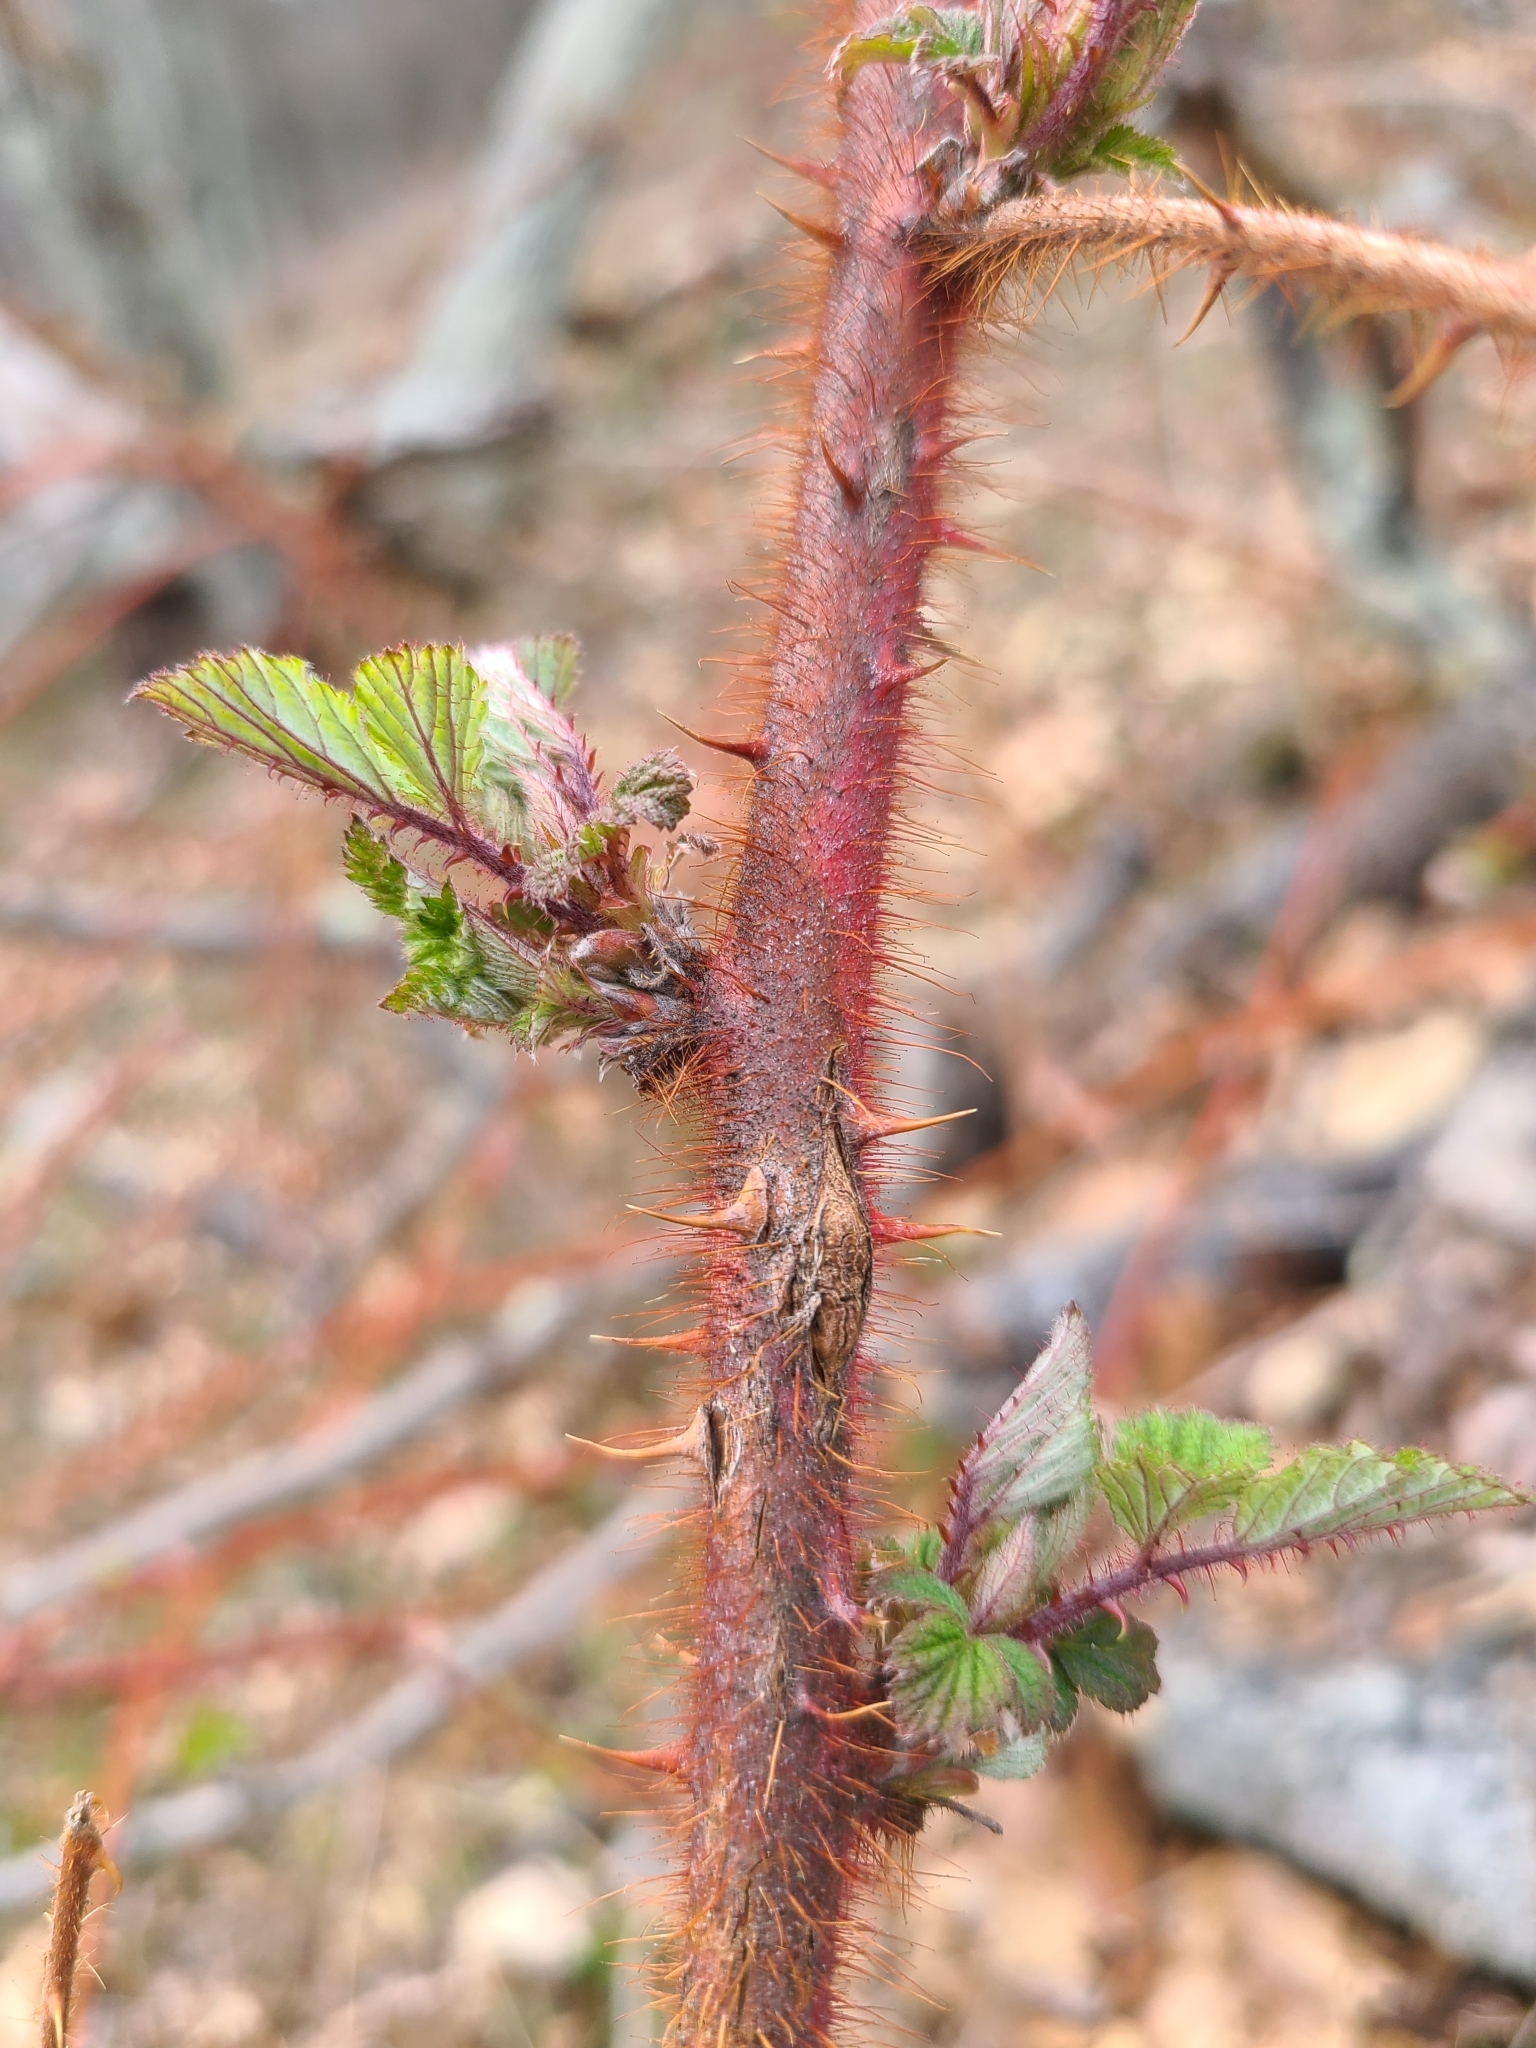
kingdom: Plantae
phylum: Tracheophyta
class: Magnoliopsida
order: Rosales
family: Rosaceae
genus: Rubus
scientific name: Rubus phoenicolasius
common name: Japanese wineberry
